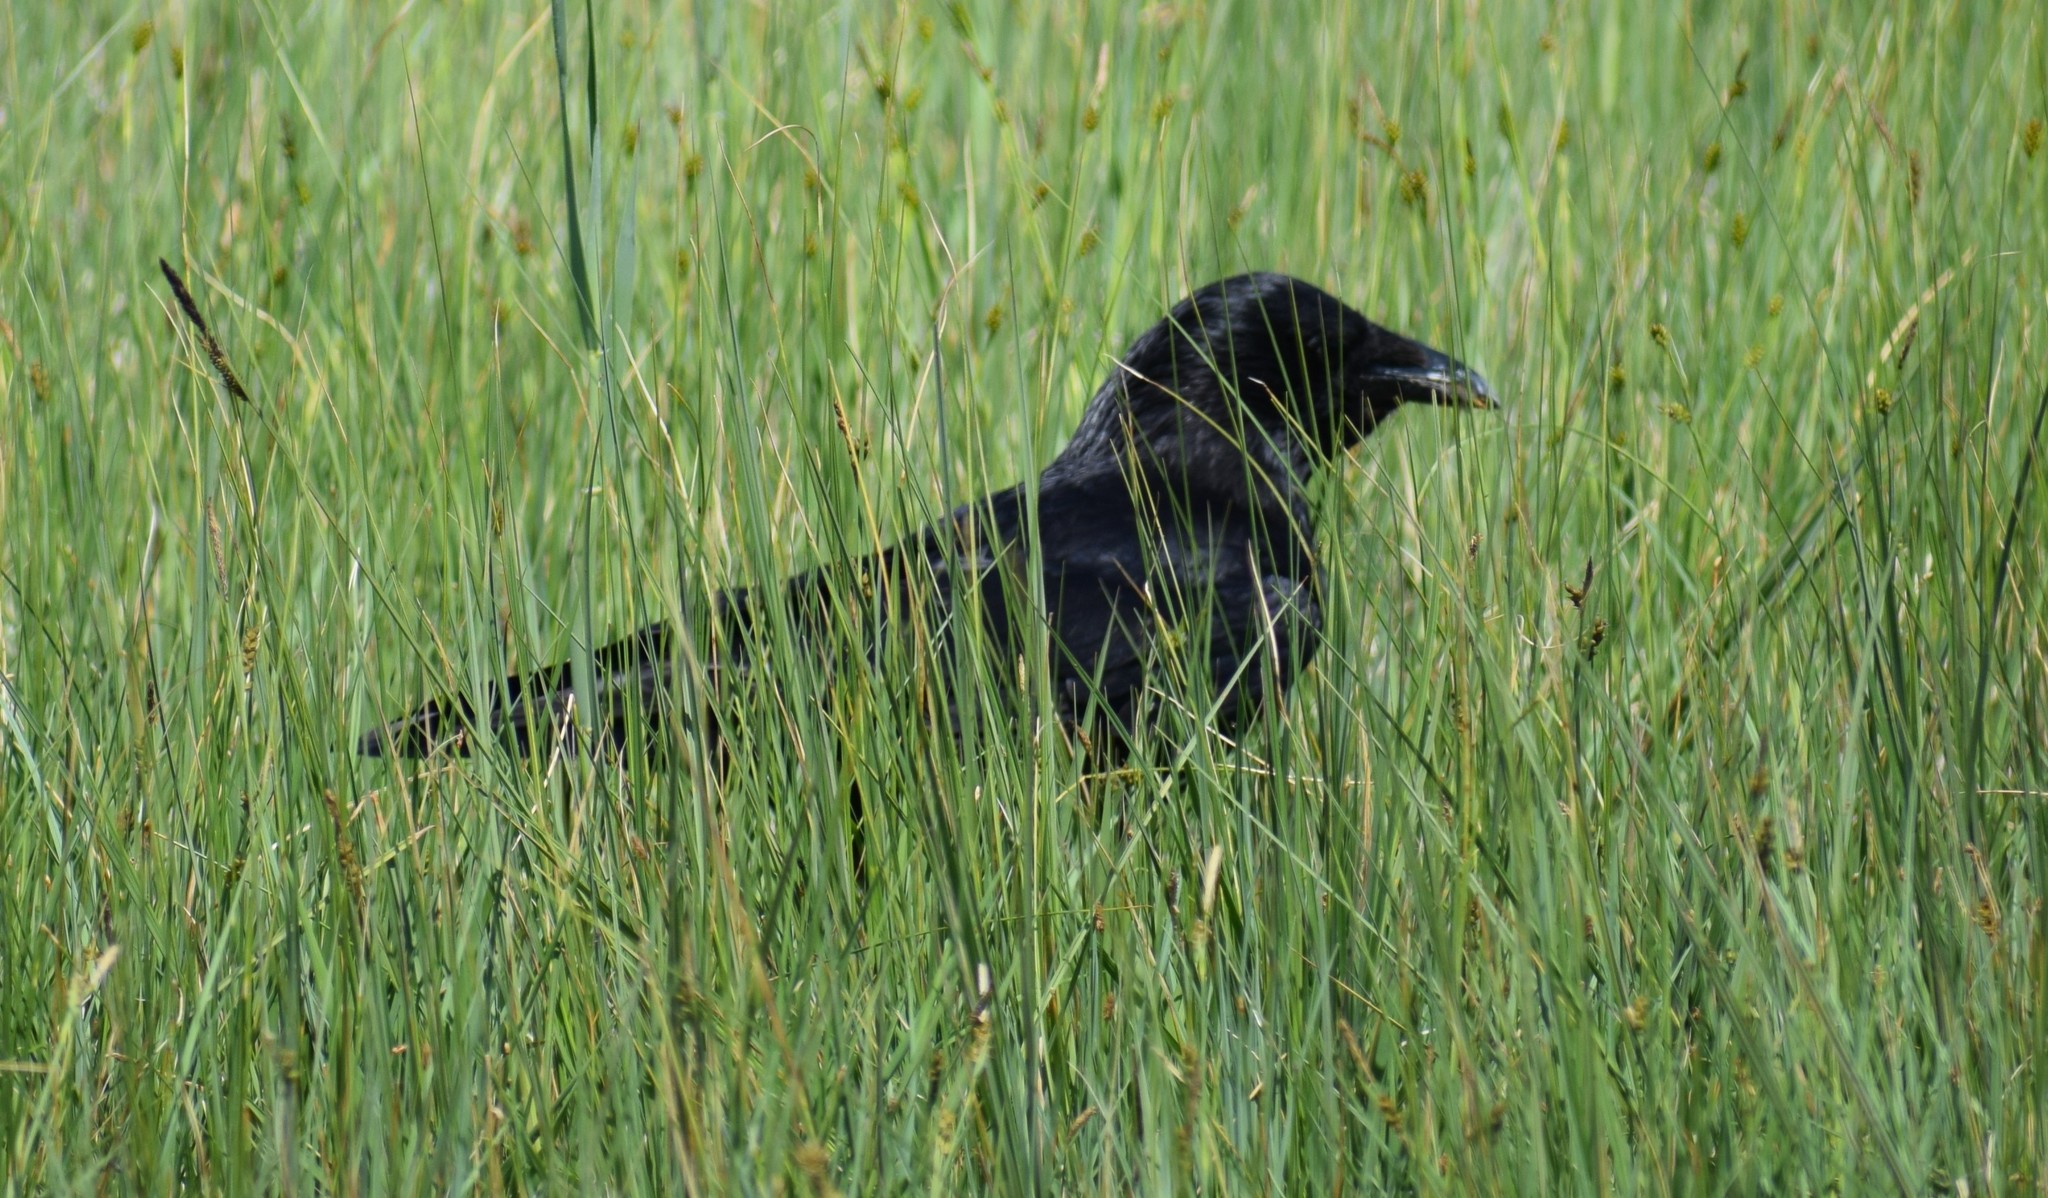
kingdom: Animalia
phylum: Chordata
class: Aves
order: Passeriformes
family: Corvidae
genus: Corvus
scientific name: Corvus corone
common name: Carrion crow
